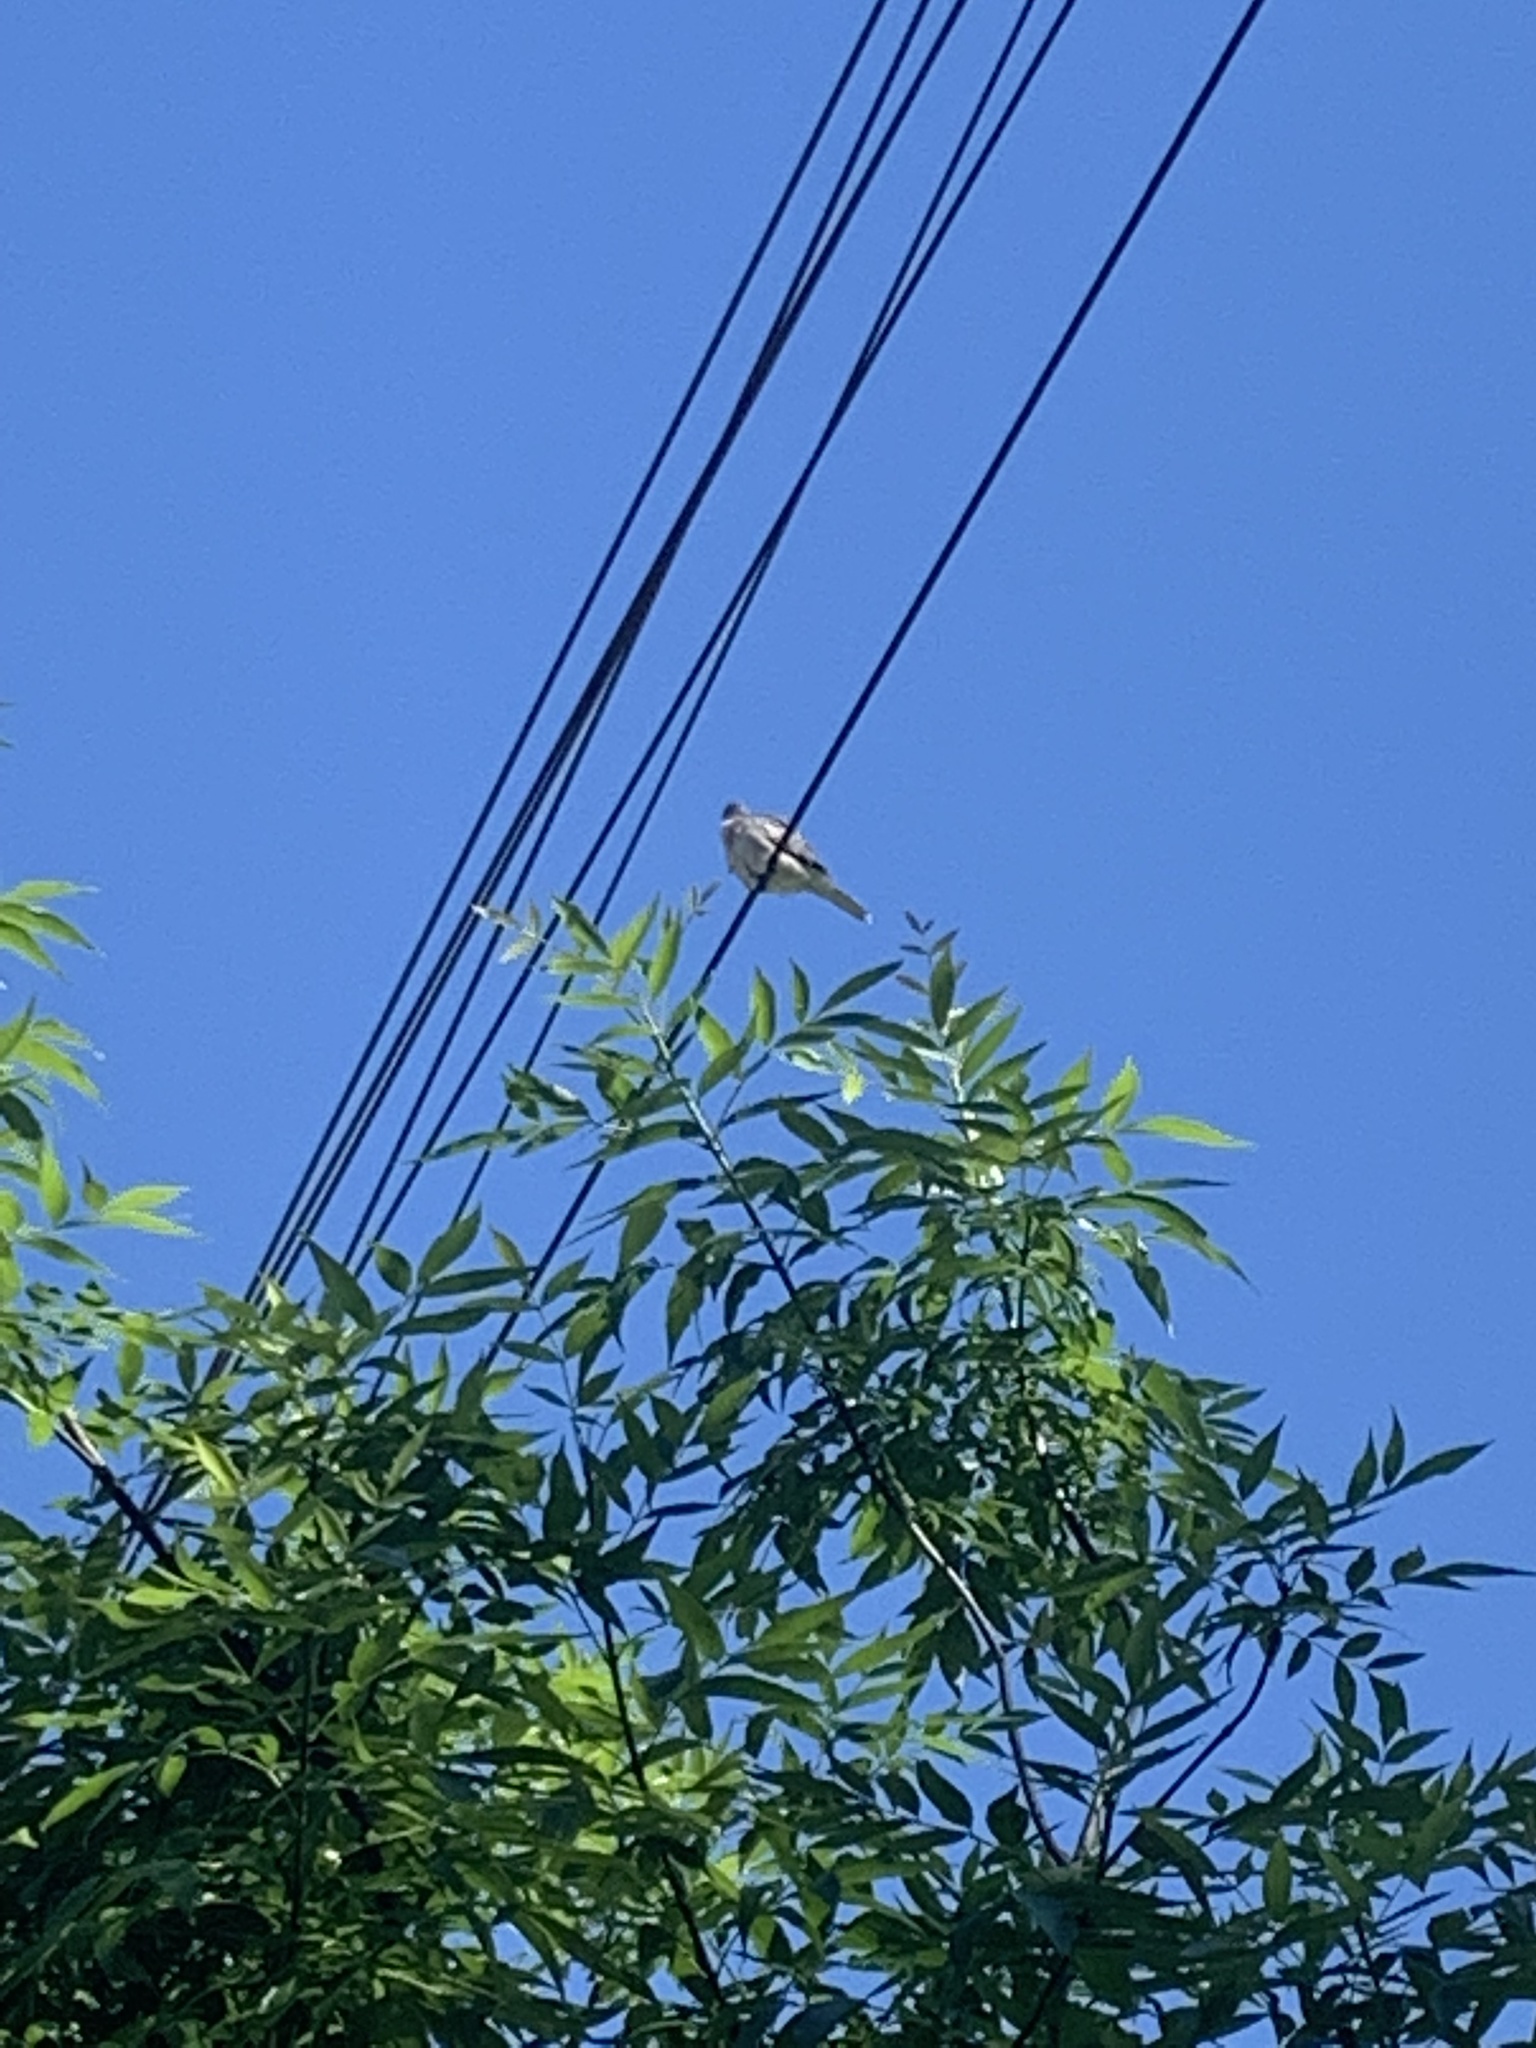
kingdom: Animalia
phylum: Chordata
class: Aves
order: Columbiformes
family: Columbidae
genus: Columbina
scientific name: Columbina picui
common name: Picui ground dove
